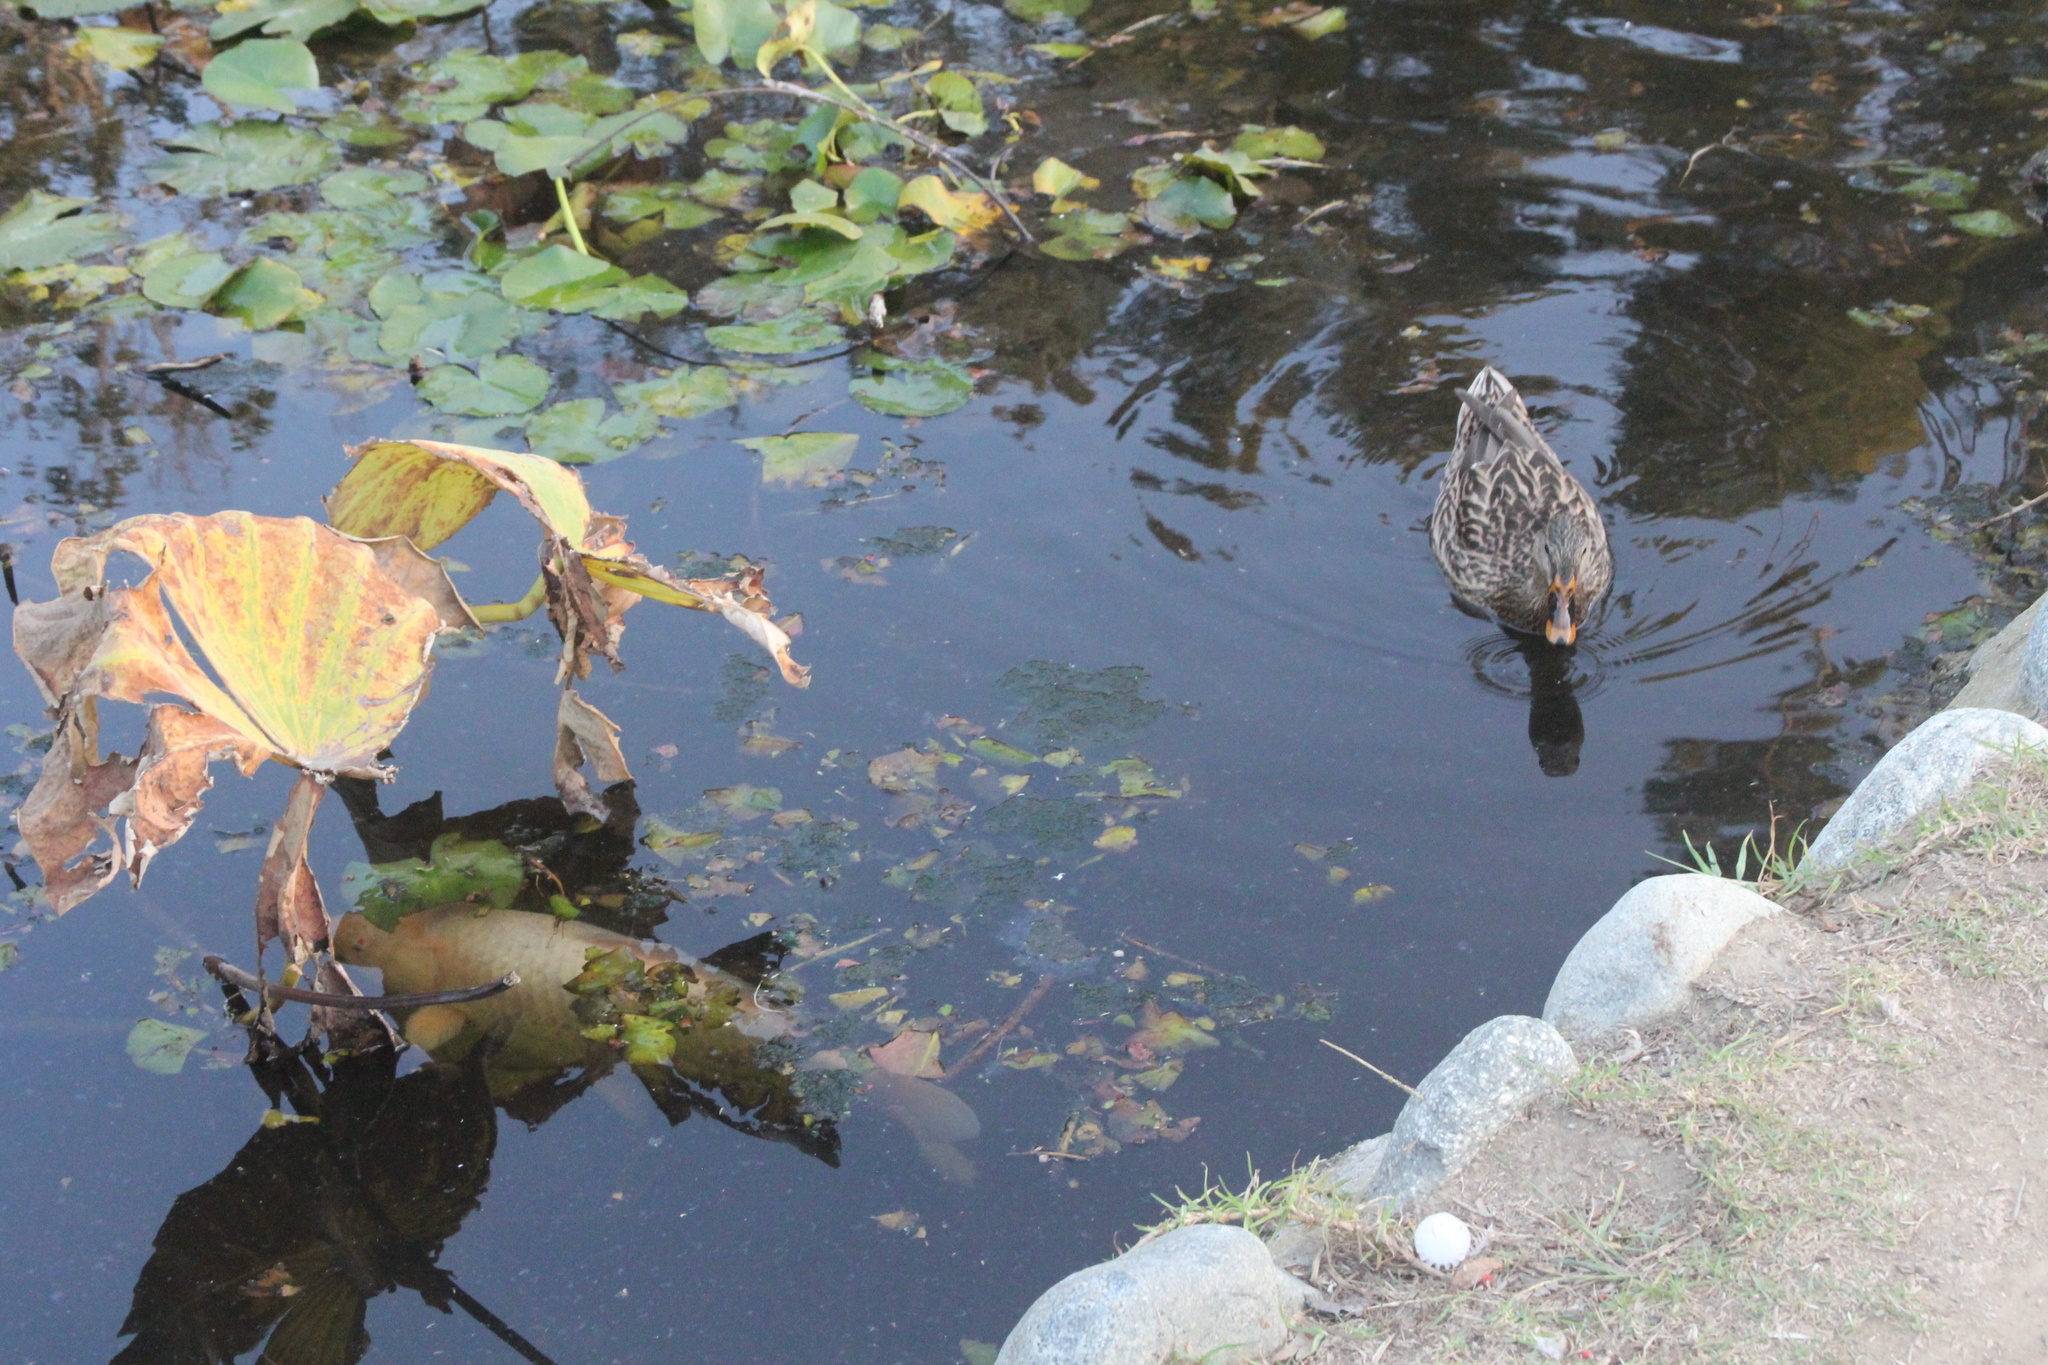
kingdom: Animalia
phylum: Chordata
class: Aves
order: Anseriformes
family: Anatidae
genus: Anas
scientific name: Anas platyrhynchos
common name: Mallard
